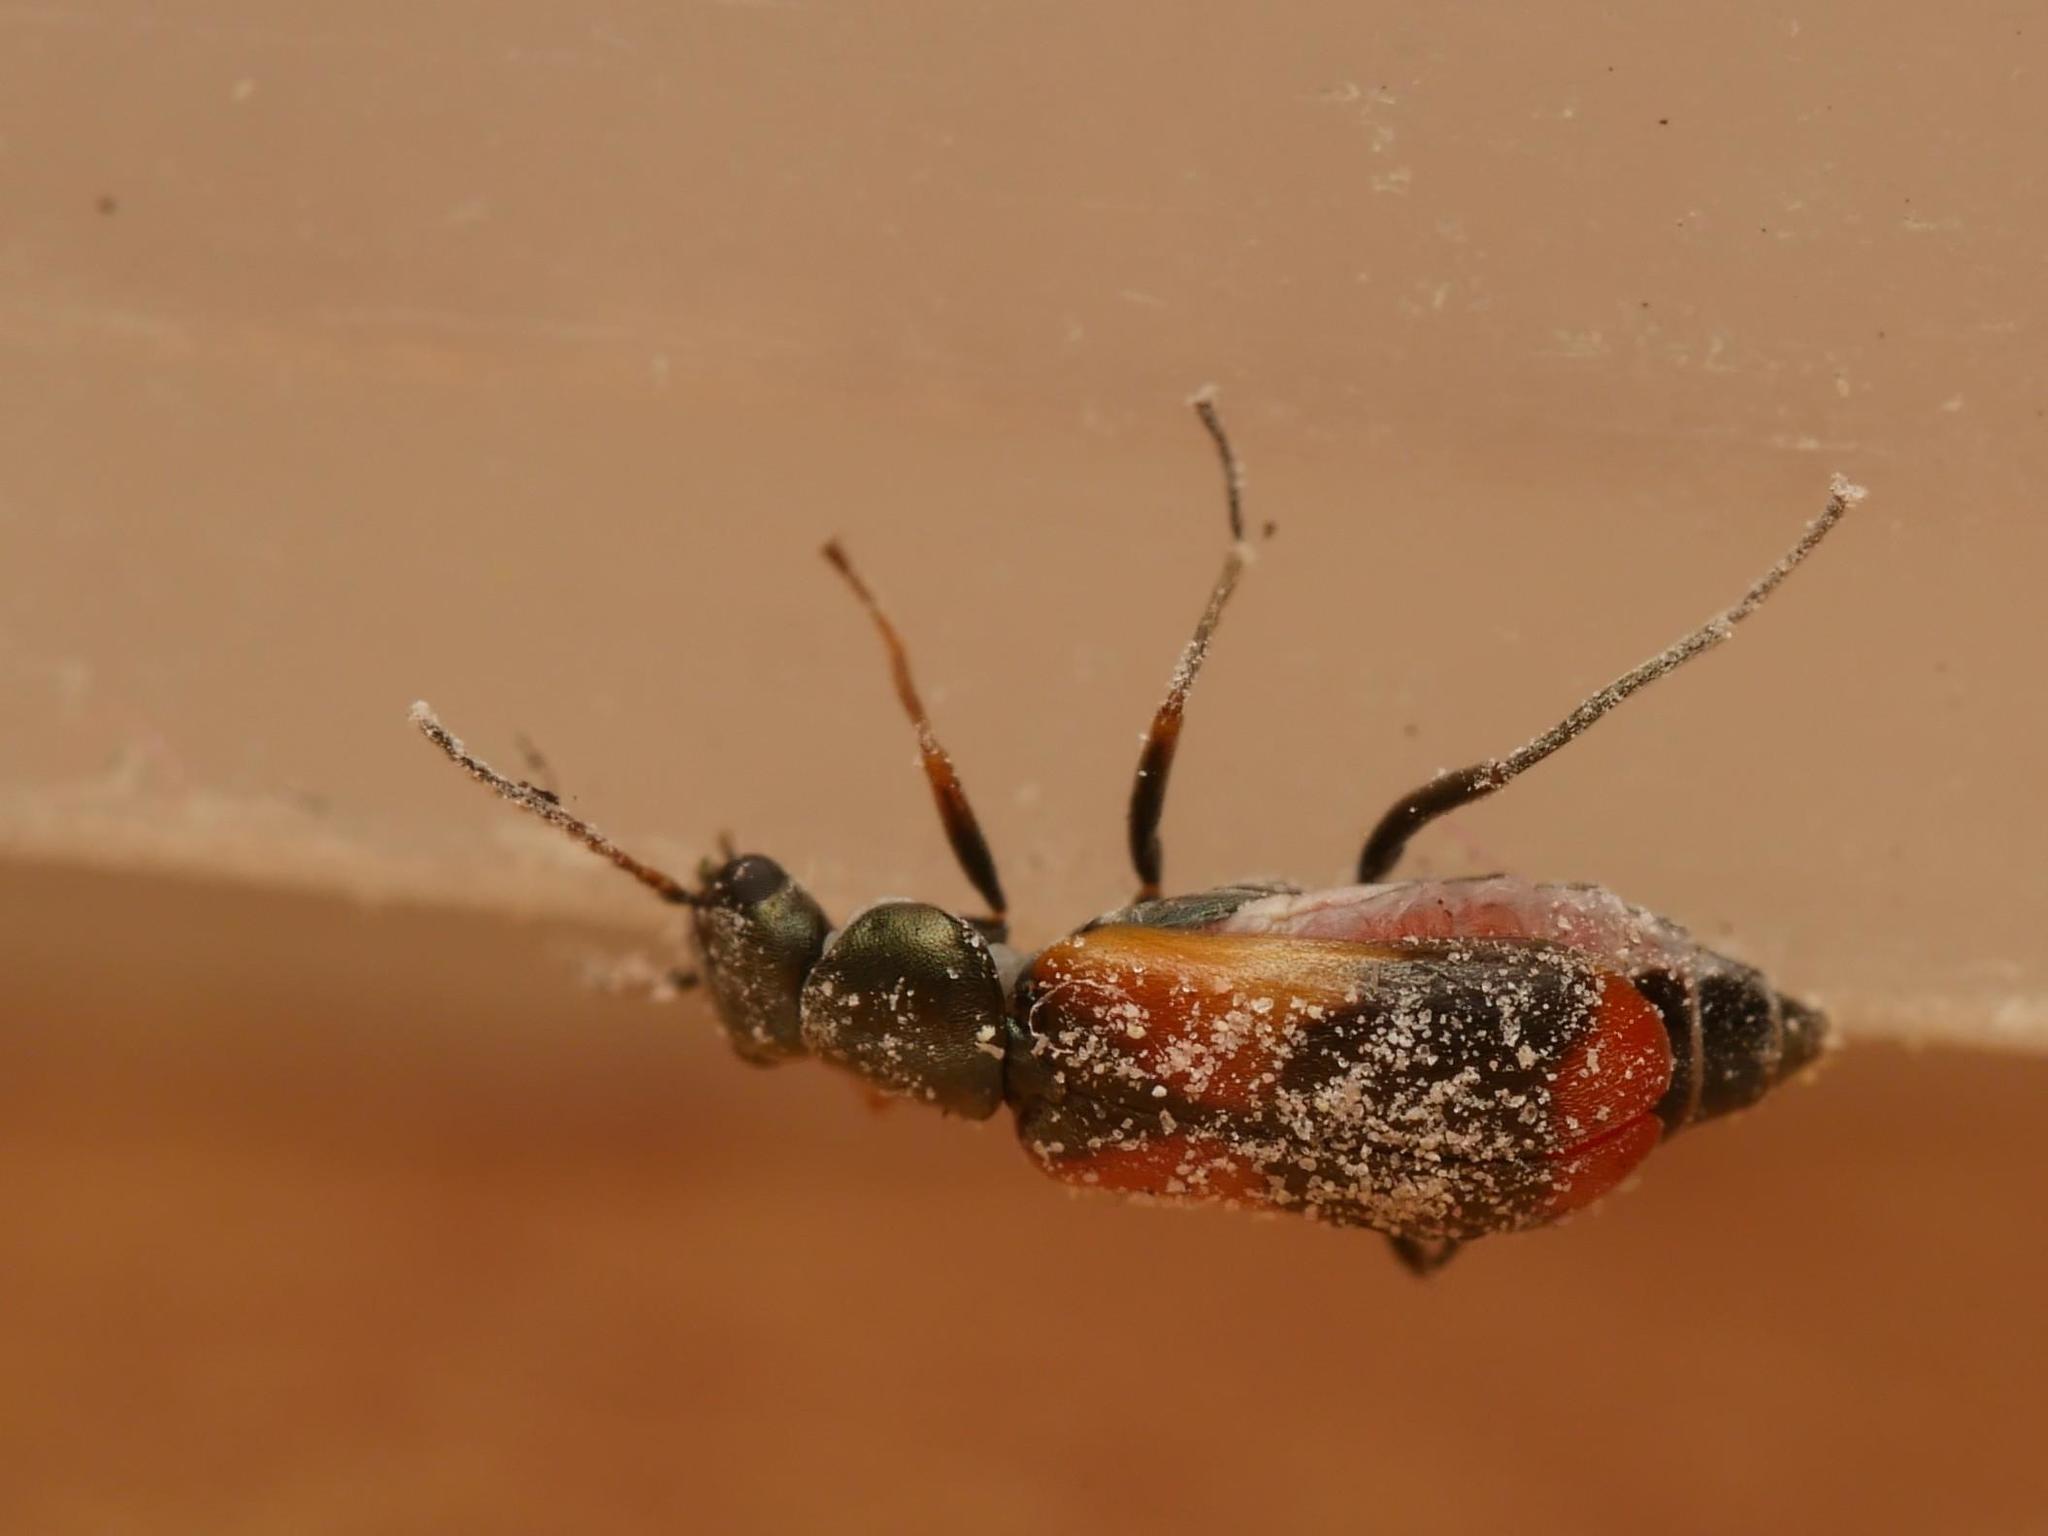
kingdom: Animalia
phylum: Arthropoda
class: Insecta
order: Coleoptera
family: Melyridae
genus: Anthocomus
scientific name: Anthocomus equestris
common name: Black-banded soft-winged flower beetle
